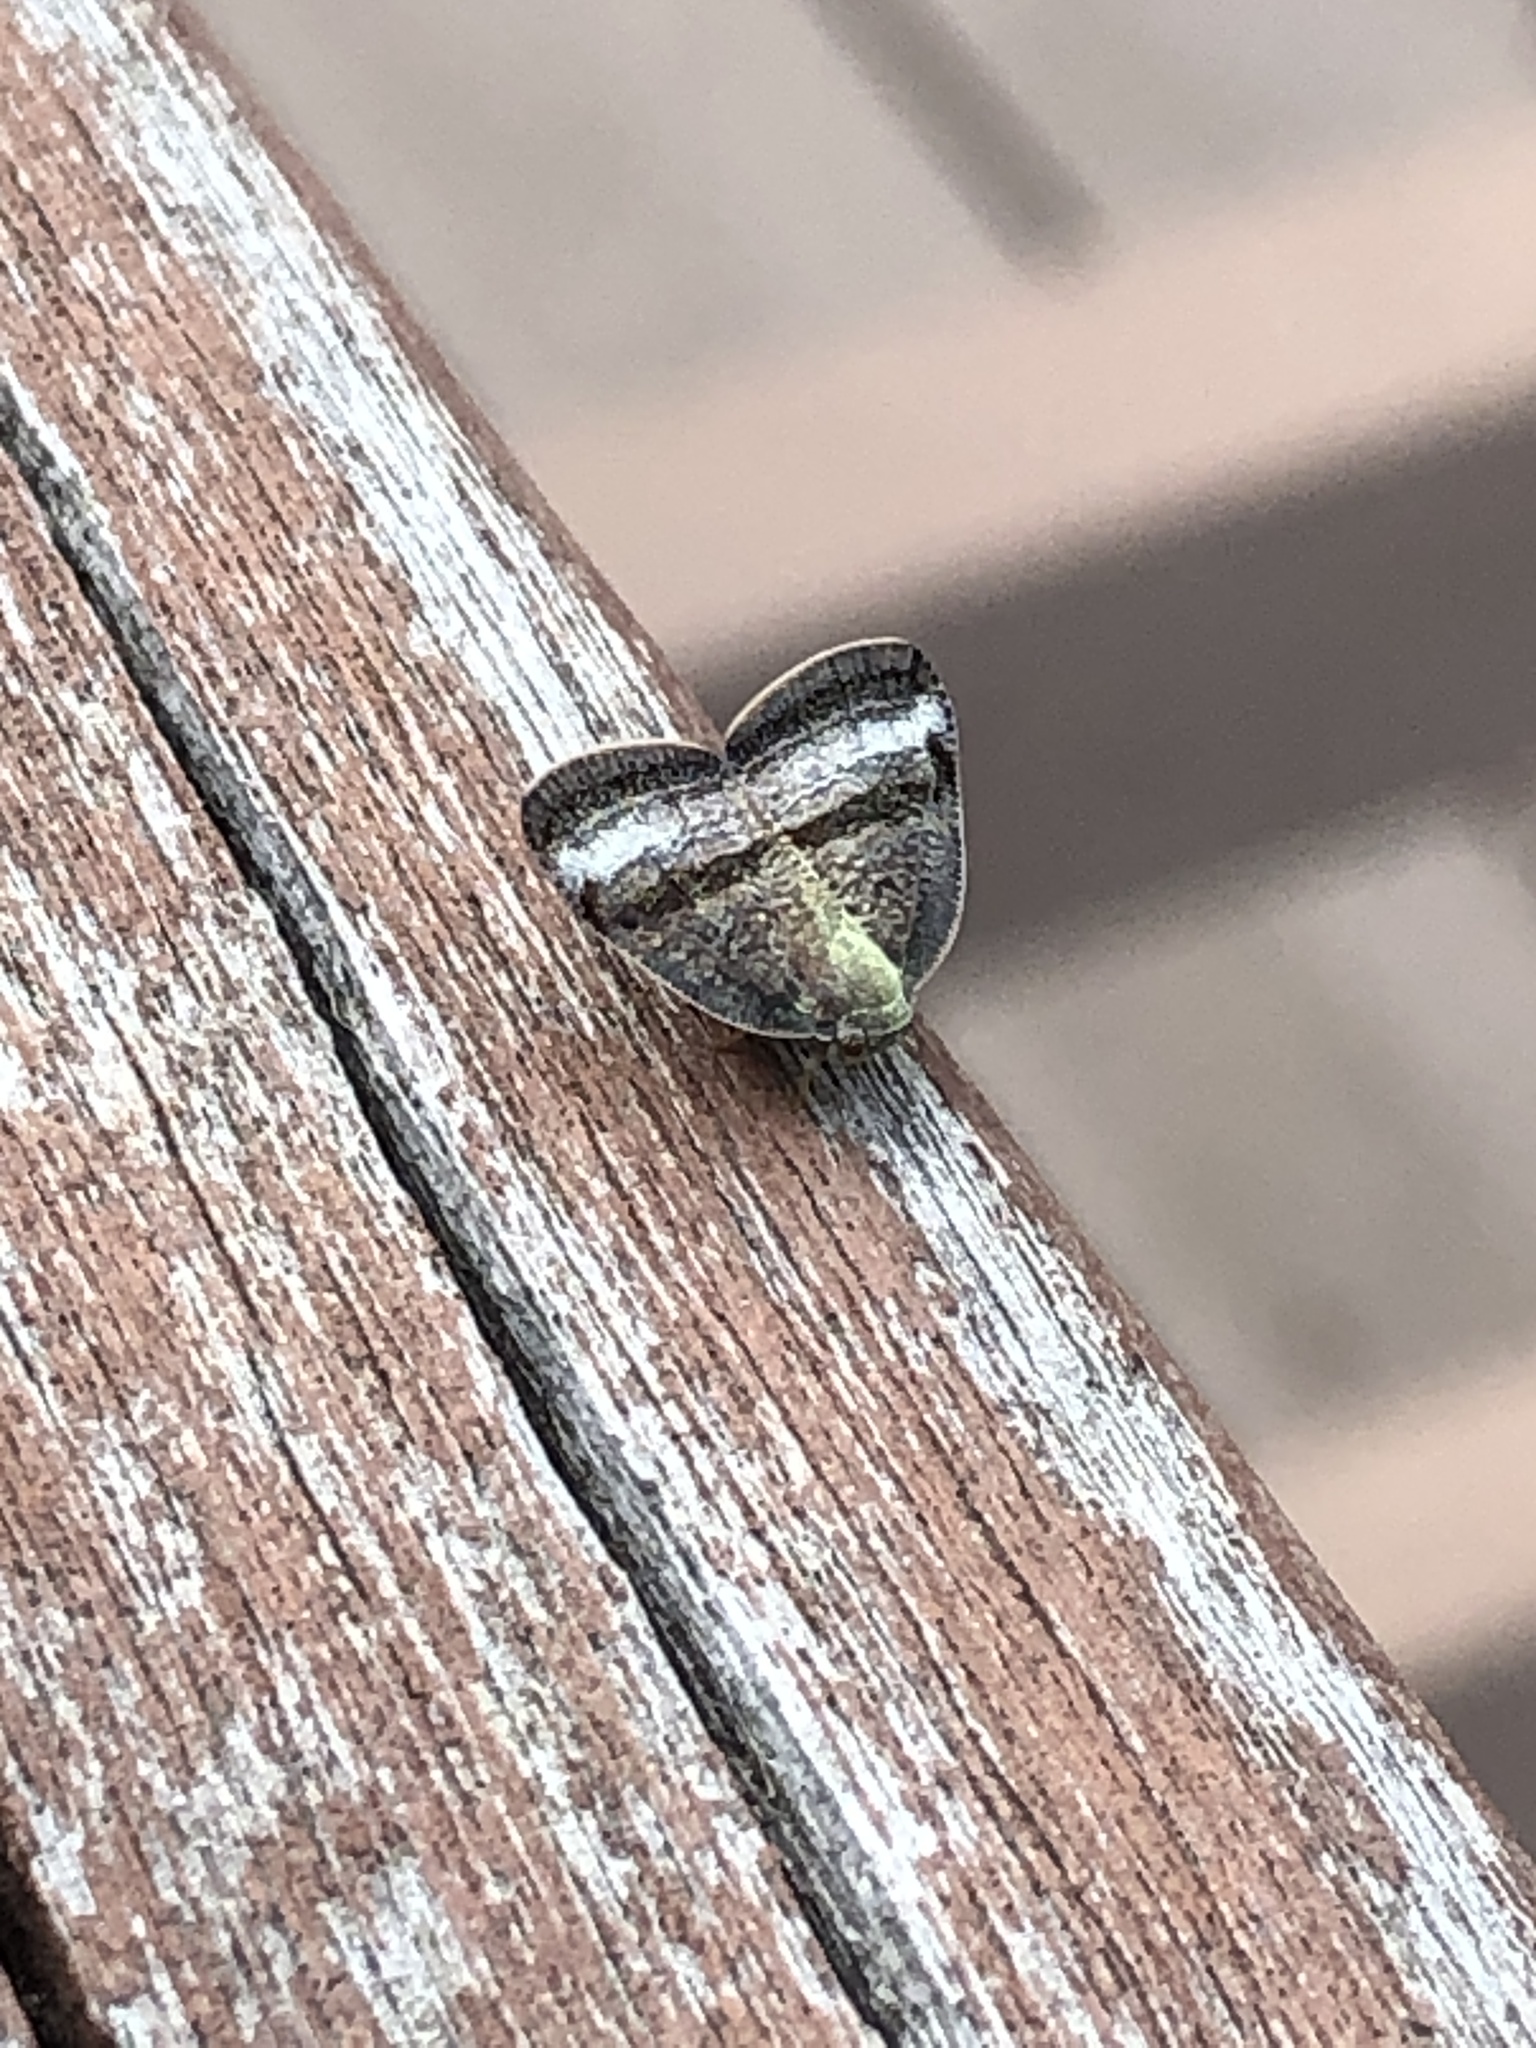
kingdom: Animalia
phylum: Arthropoda
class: Insecta
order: Hemiptera
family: Ricaniidae
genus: Ricania
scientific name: Ricania taeniata
